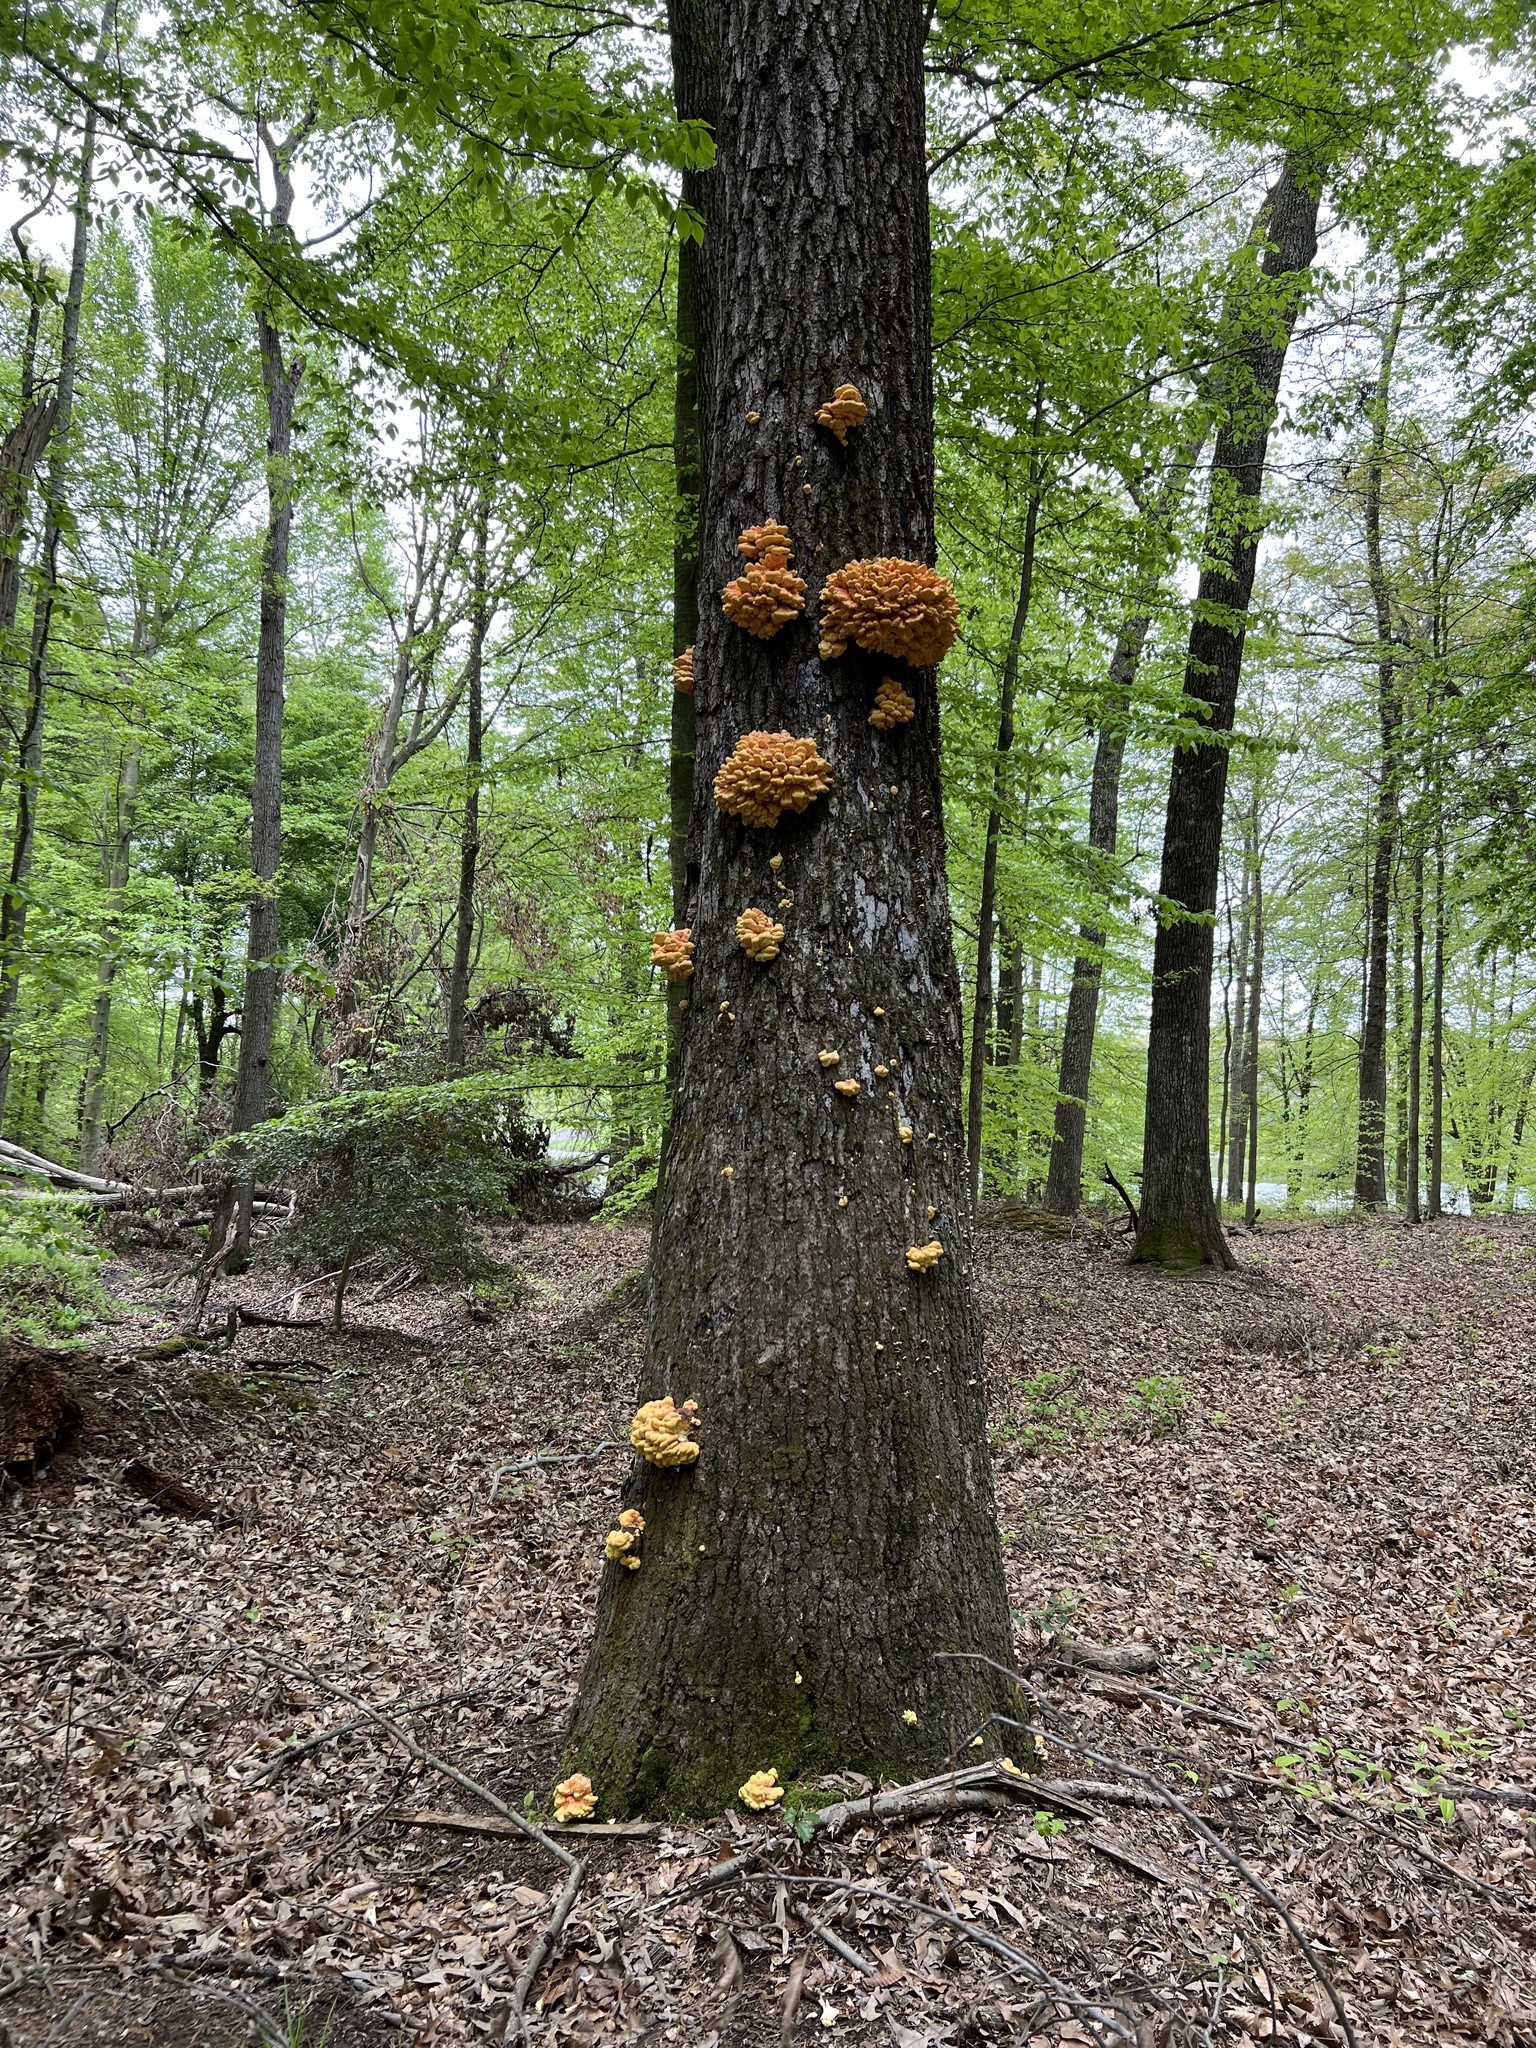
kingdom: Fungi
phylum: Basidiomycota
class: Agaricomycetes
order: Polyporales
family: Laetiporaceae
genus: Laetiporus
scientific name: Laetiporus sulphureus
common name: Chicken of the woods
